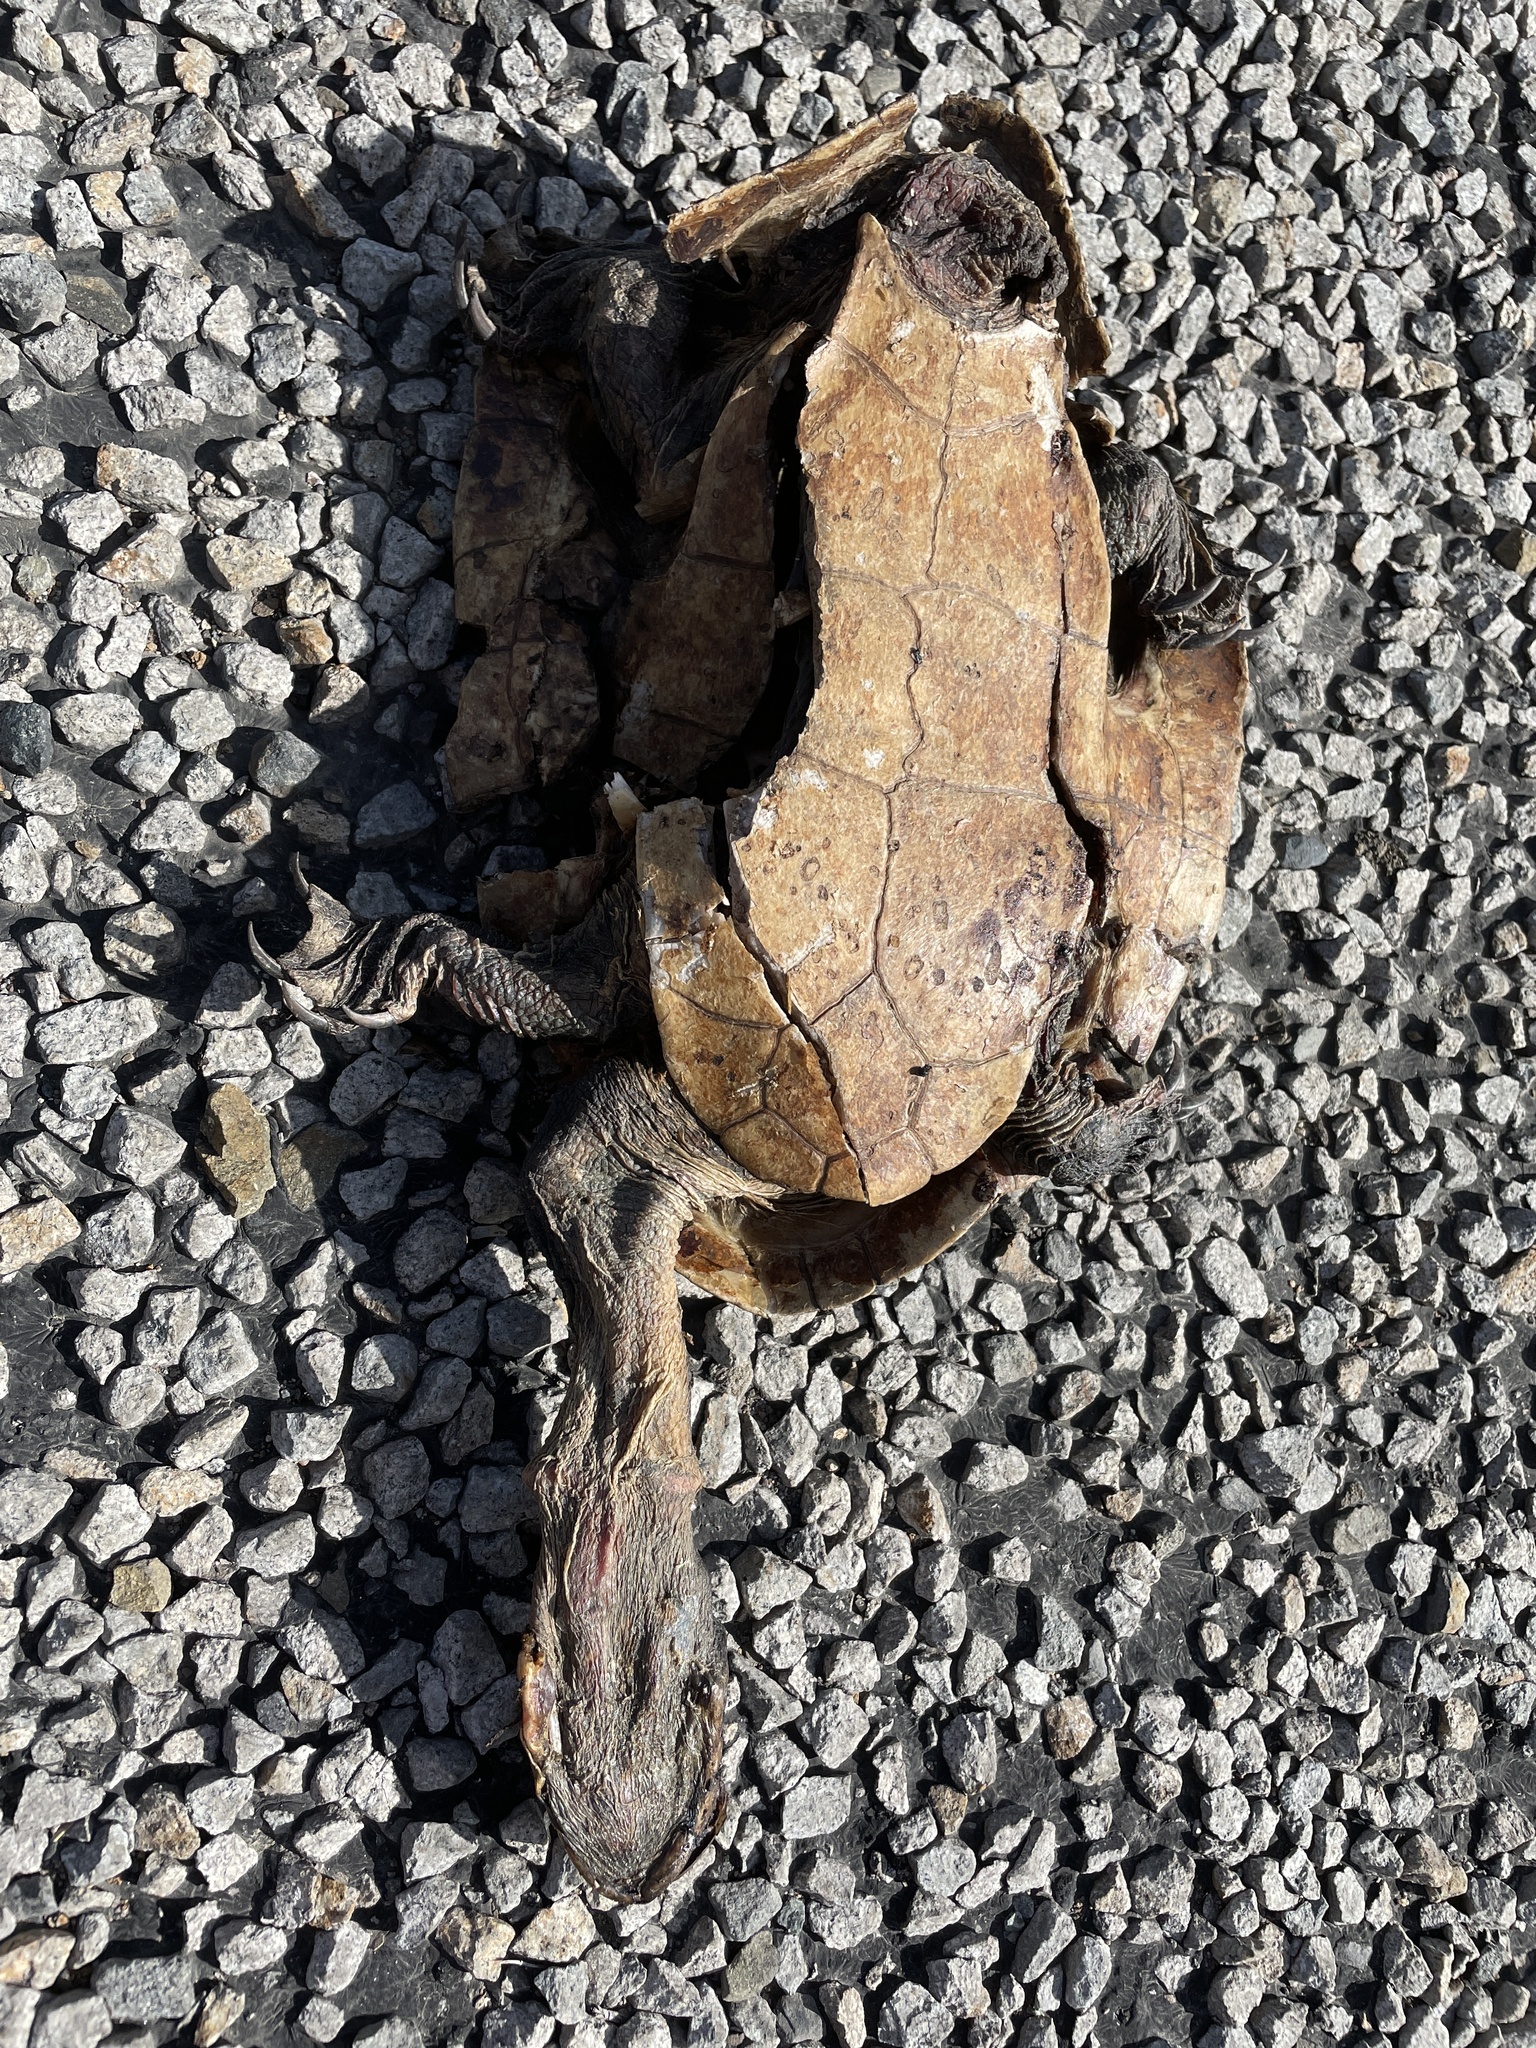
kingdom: Animalia
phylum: Chordata
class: Testudines
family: Chelidae
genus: Chelodina
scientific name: Chelodina expansa
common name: Giant snakeneck turtle
